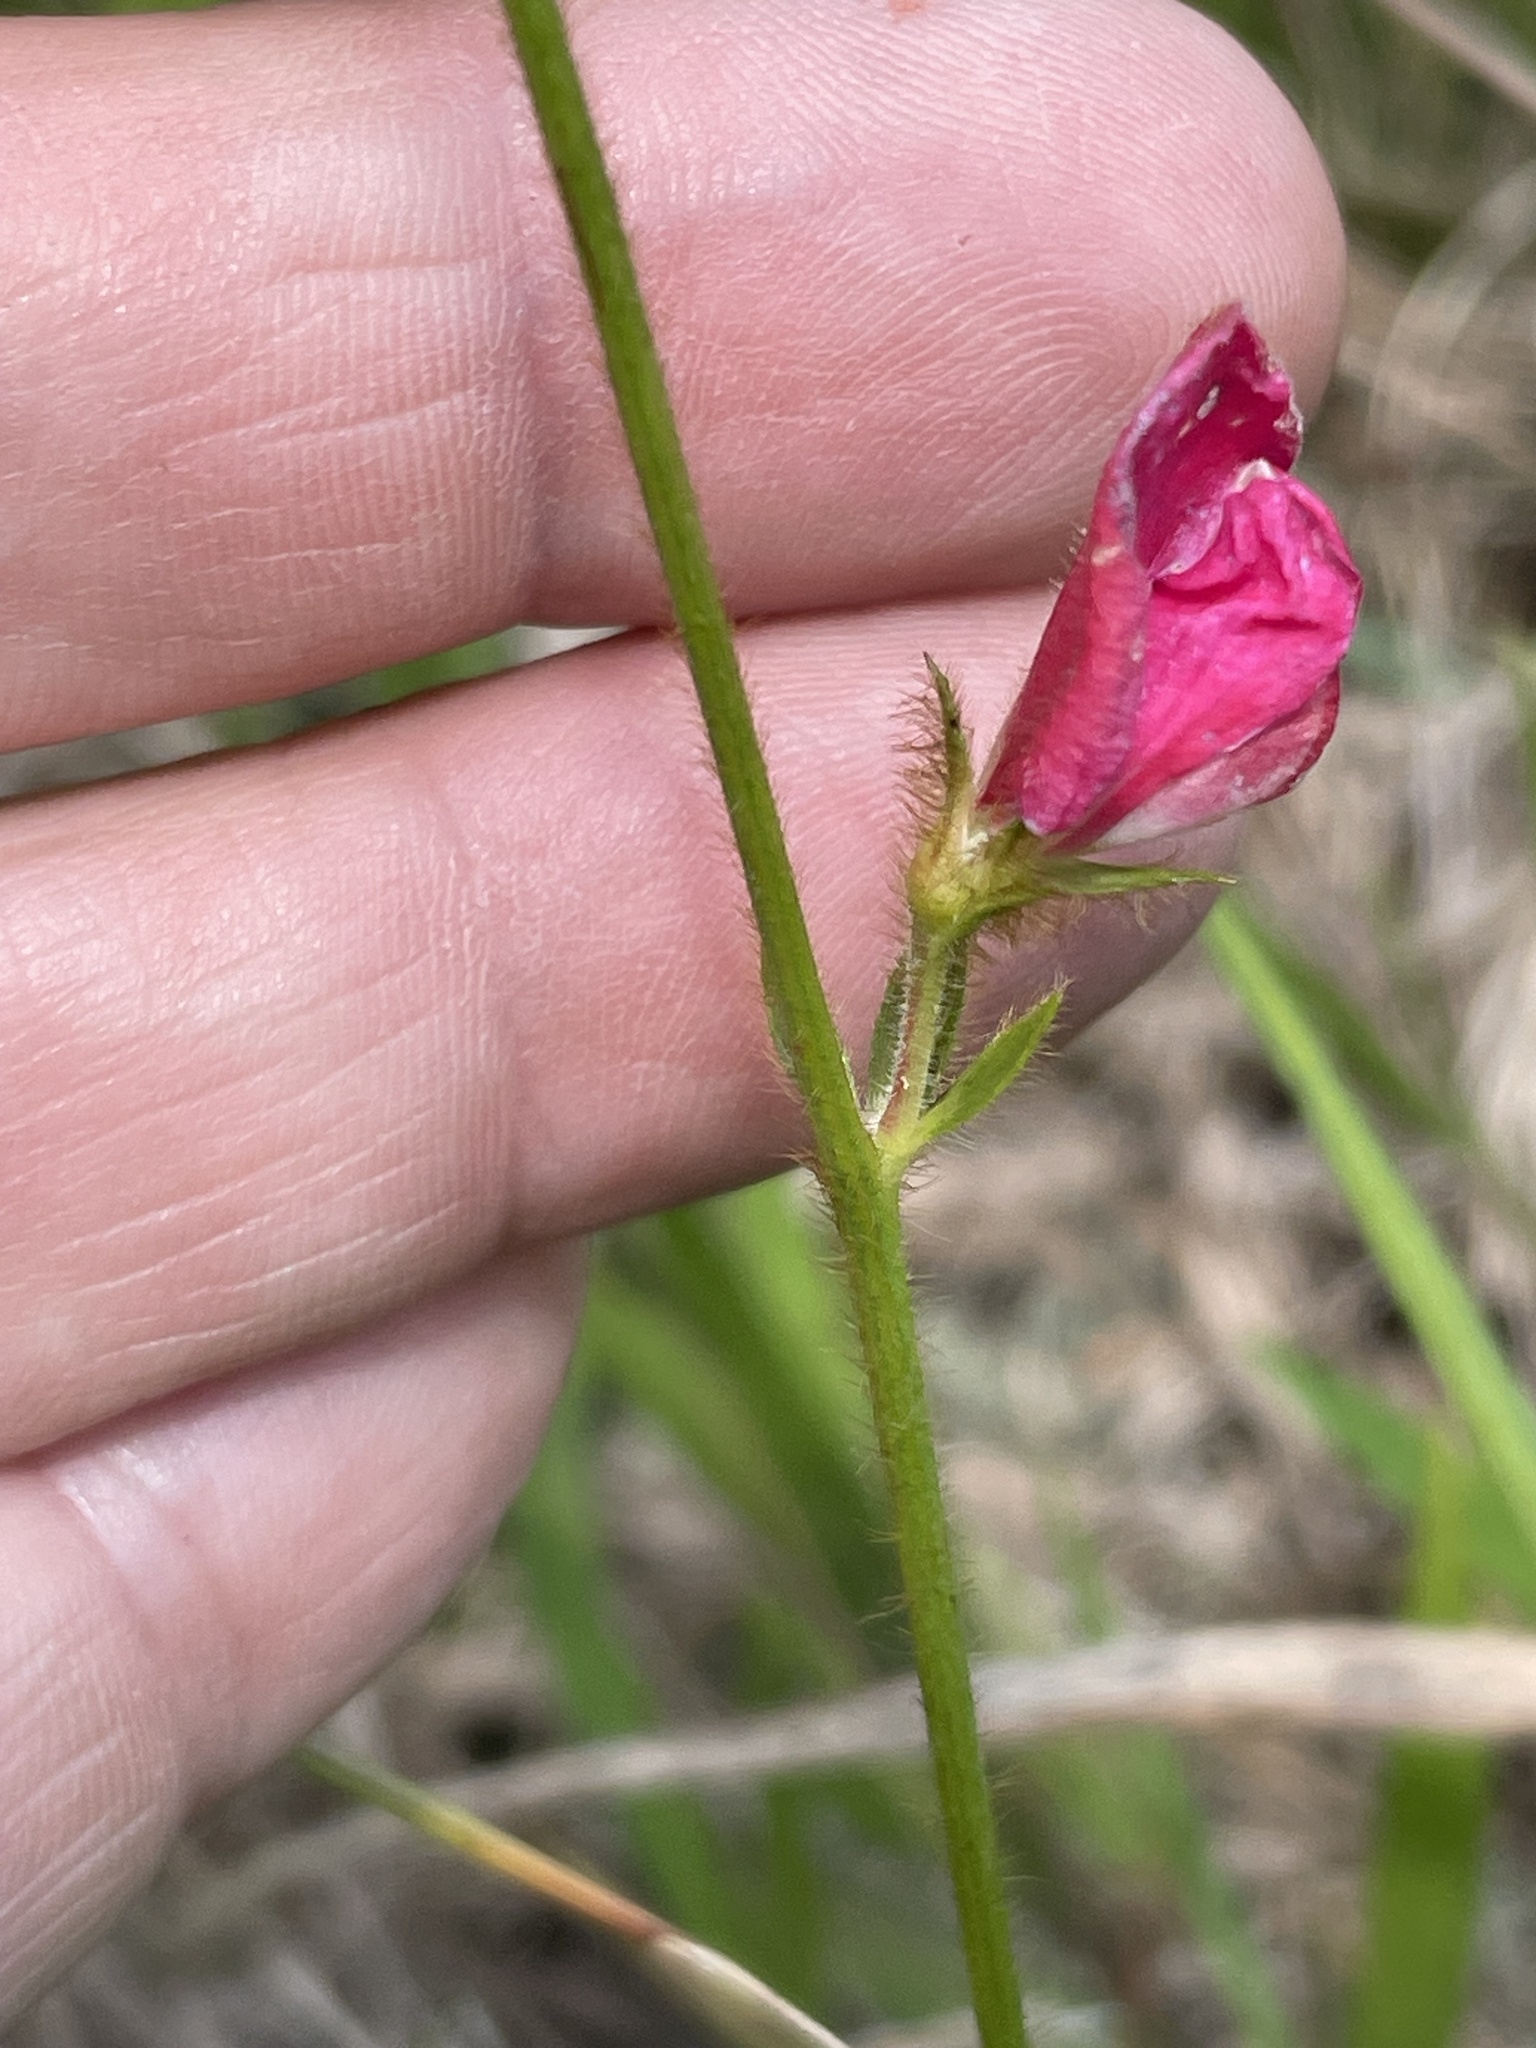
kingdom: Plantae
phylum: Tracheophyta
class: Magnoliopsida
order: Fabales
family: Fabaceae
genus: Tephrosia
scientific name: Tephrosia spicata
